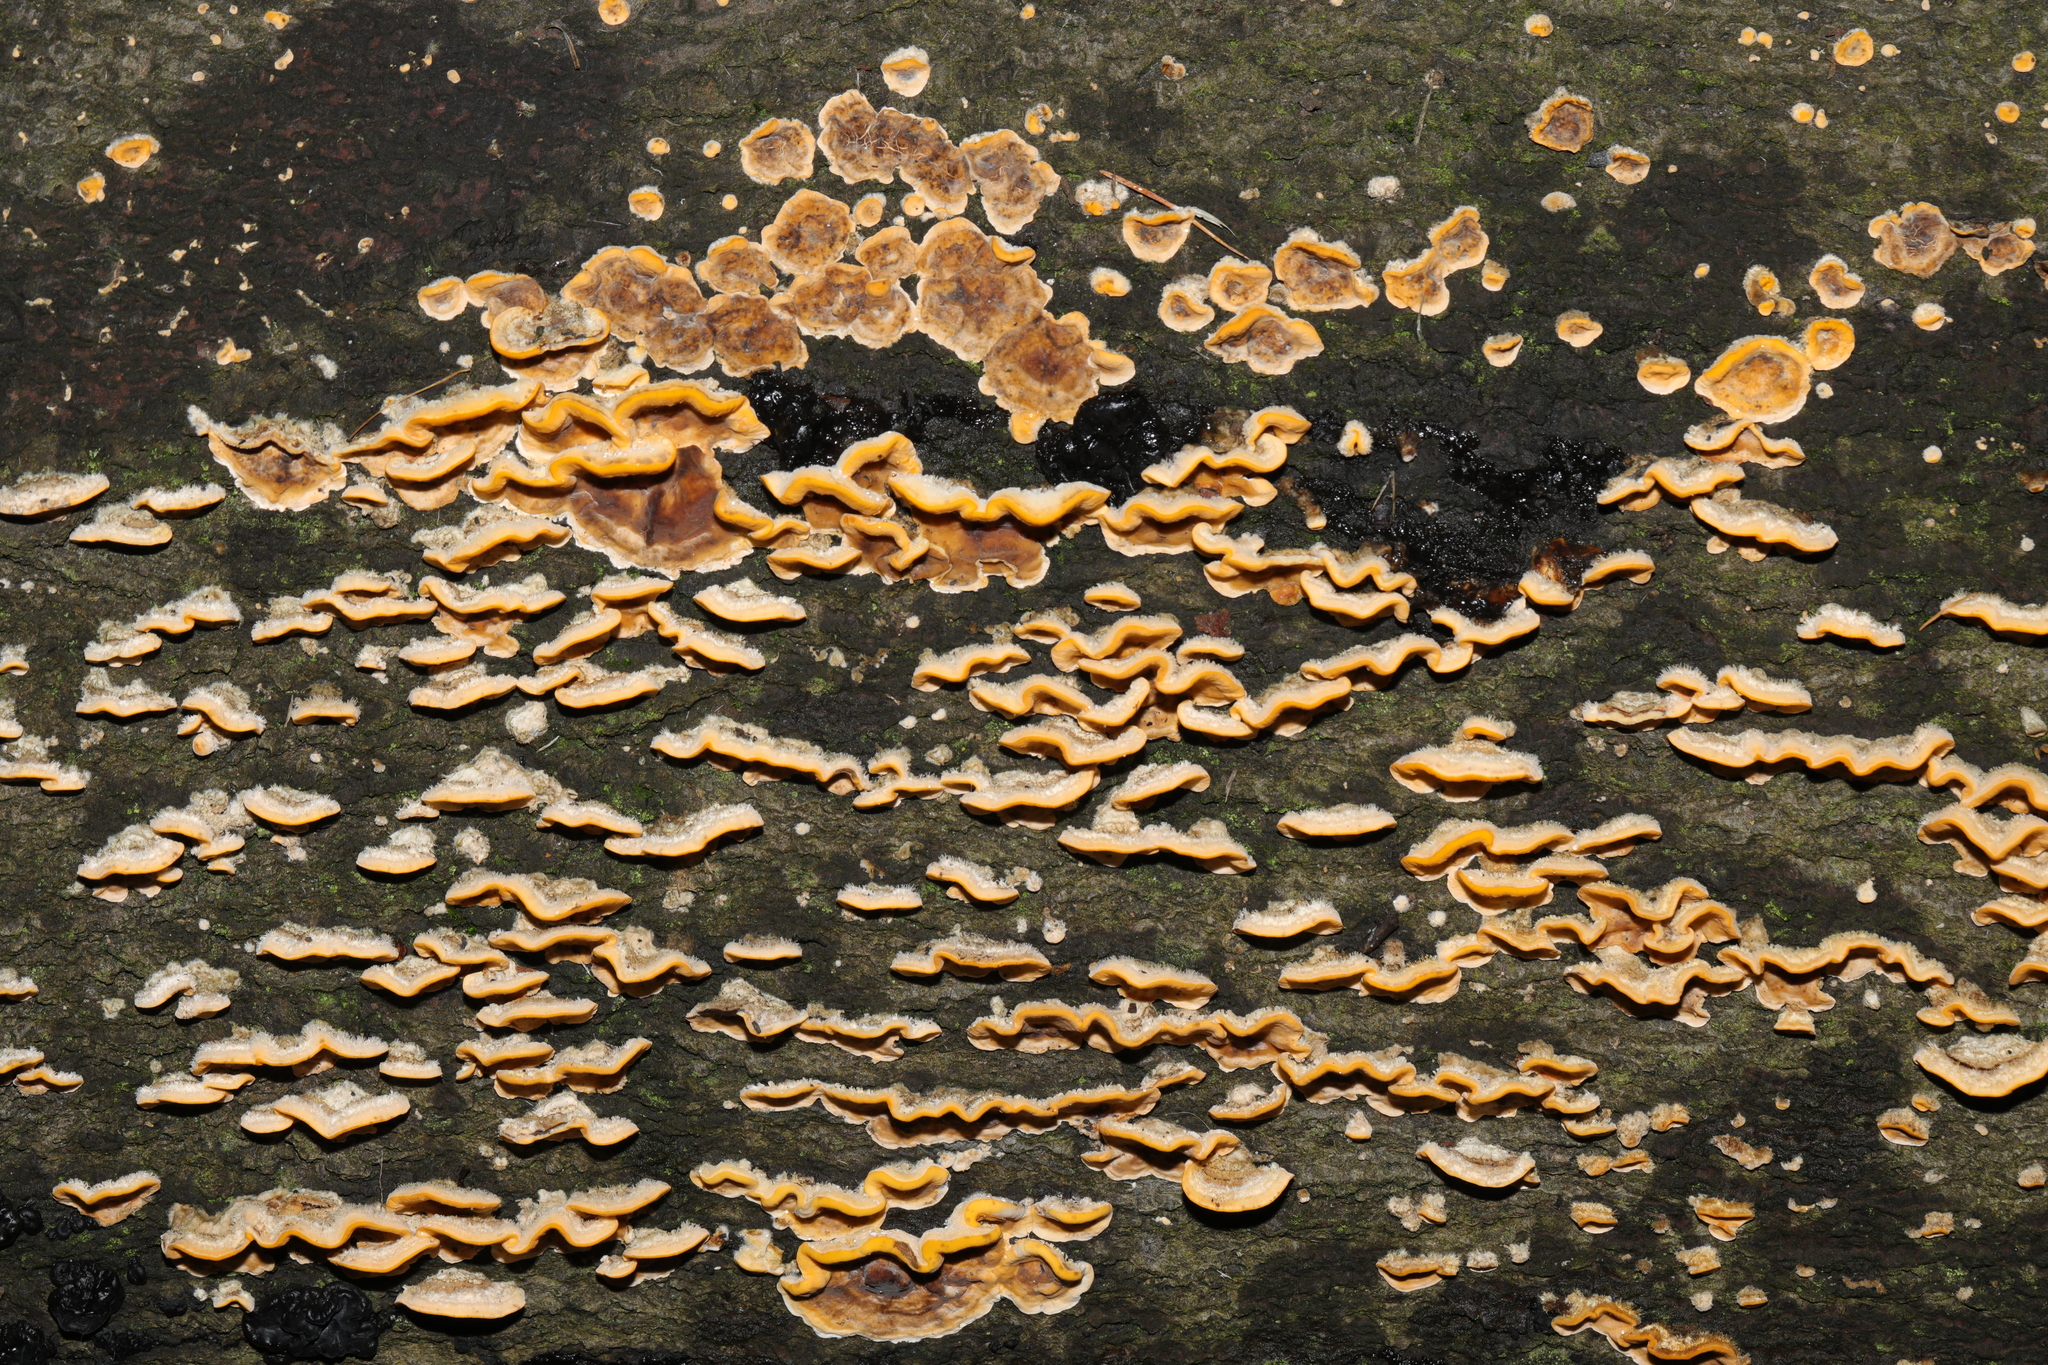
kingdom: Fungi
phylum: Basidiomycota
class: Agaricomycetes
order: Russulales
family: Stereaceae
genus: Stereum
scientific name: Stereum hirsutum
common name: Hairy curtain crust
